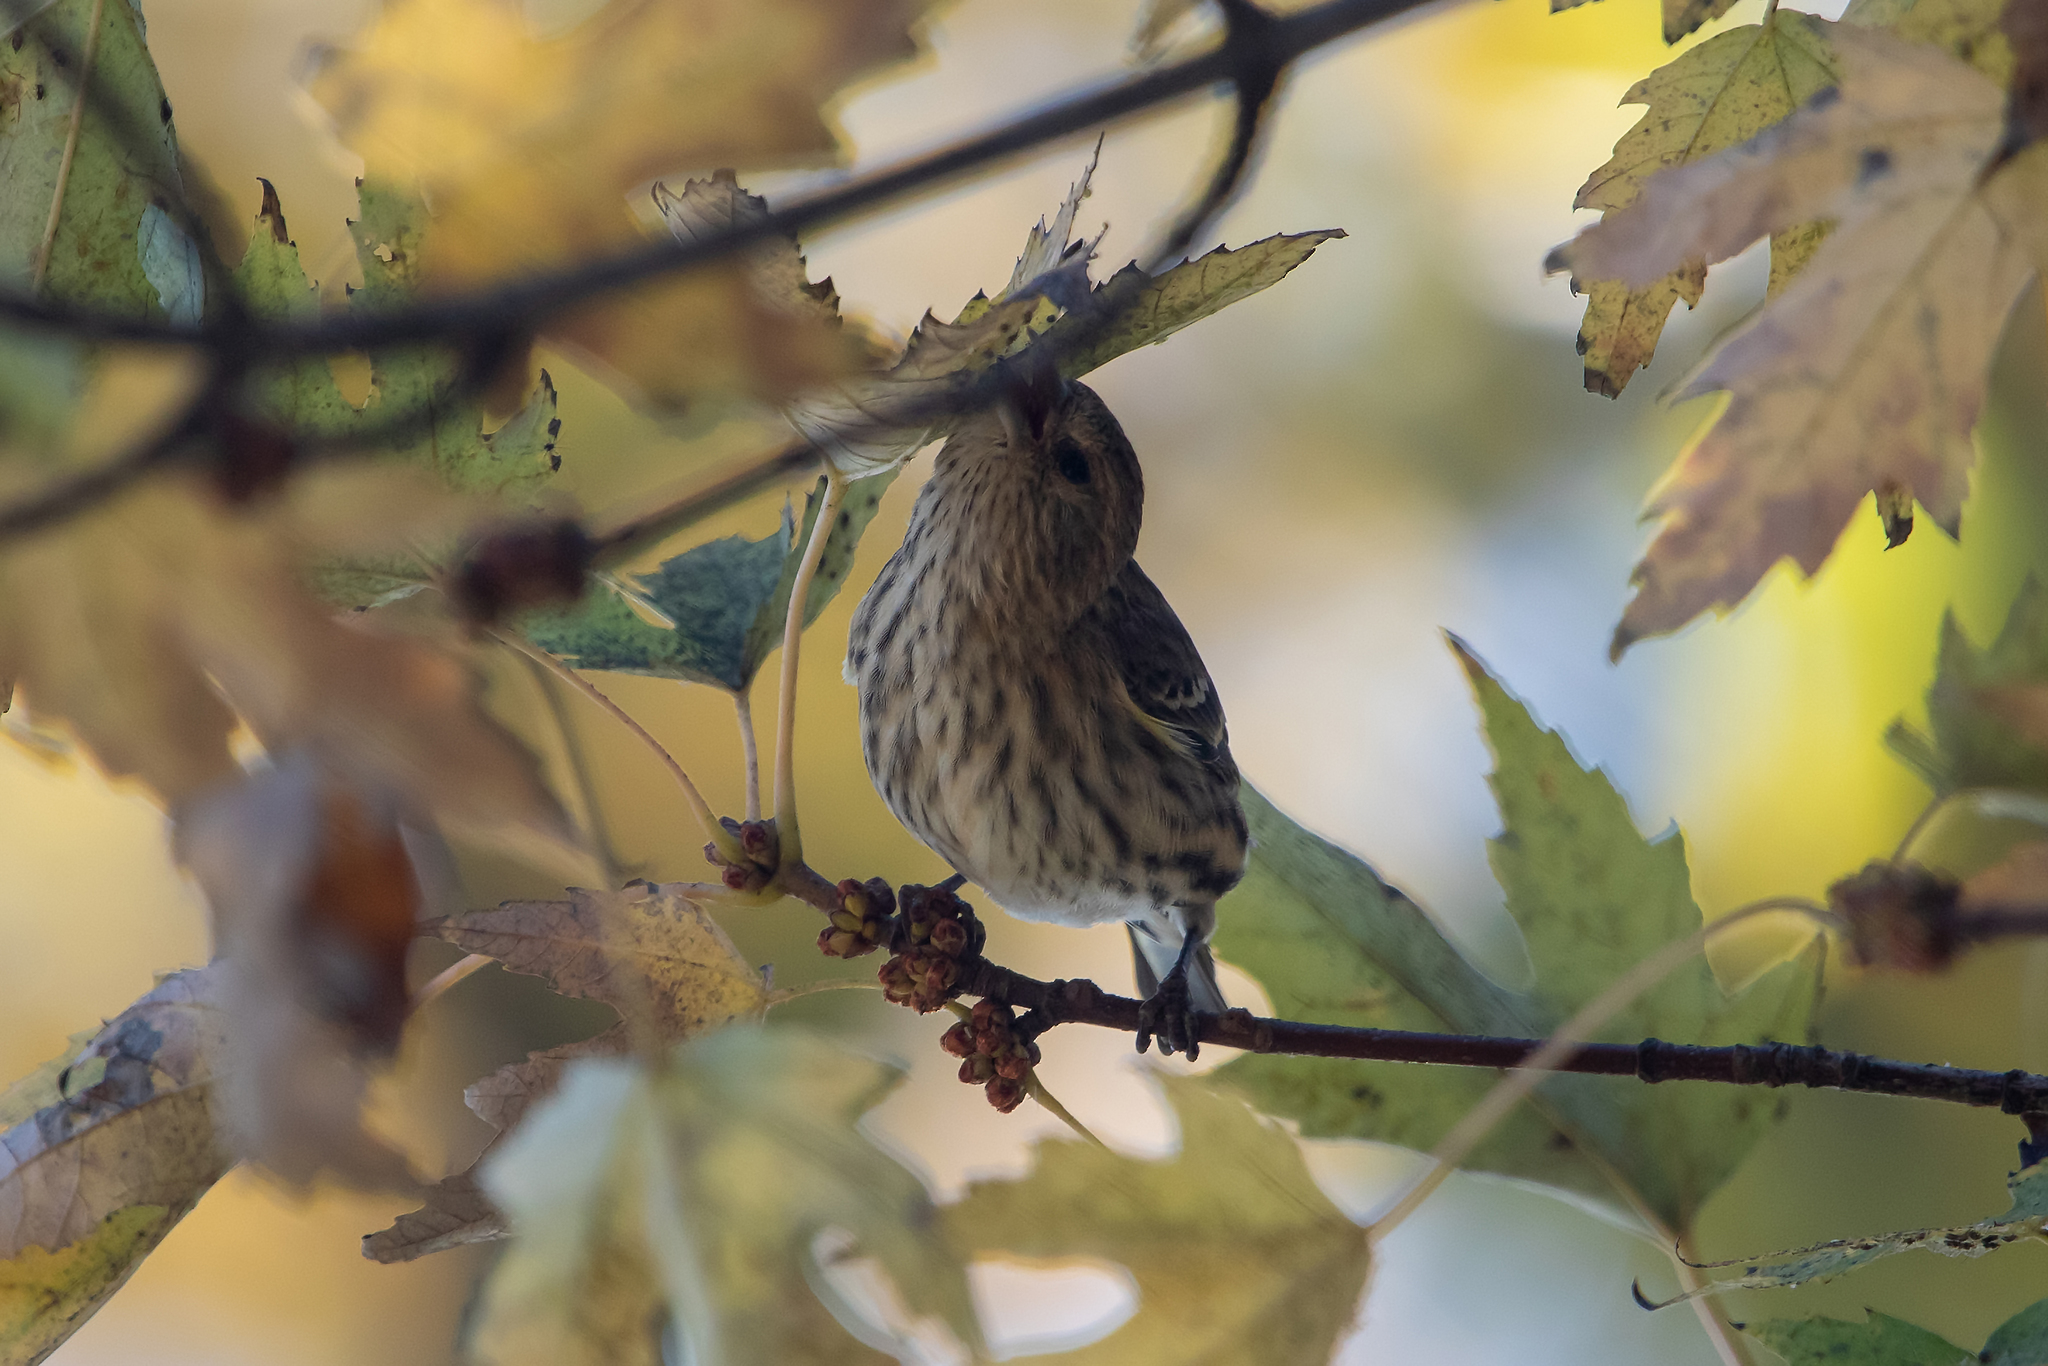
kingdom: Animalia
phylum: Chordata
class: Aves
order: Passeriformes
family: Fringillidae
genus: Spinus
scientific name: Spinus pinus
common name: Pine siskin
